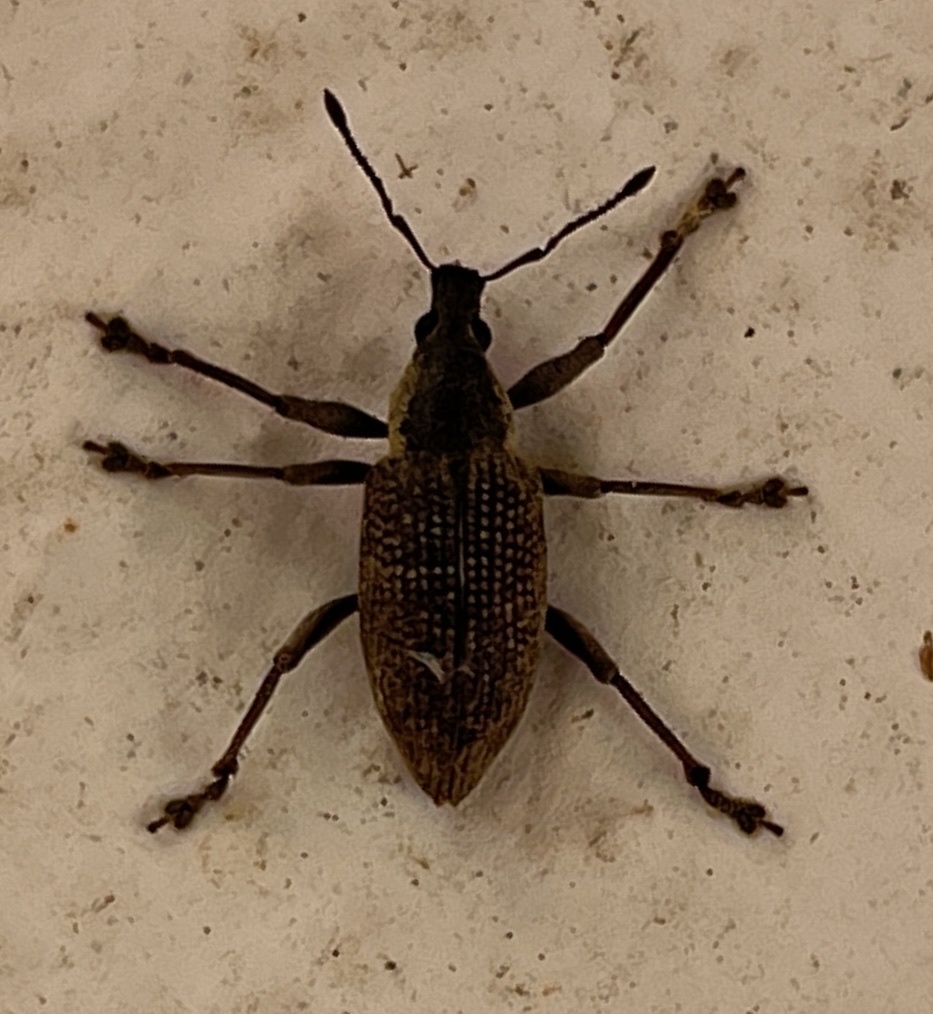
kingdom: Animalia
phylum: Arthropoda
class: Insecta
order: Coleoptera
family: Curculionidae
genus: Diaprepes
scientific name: Diaprepes famelicus
